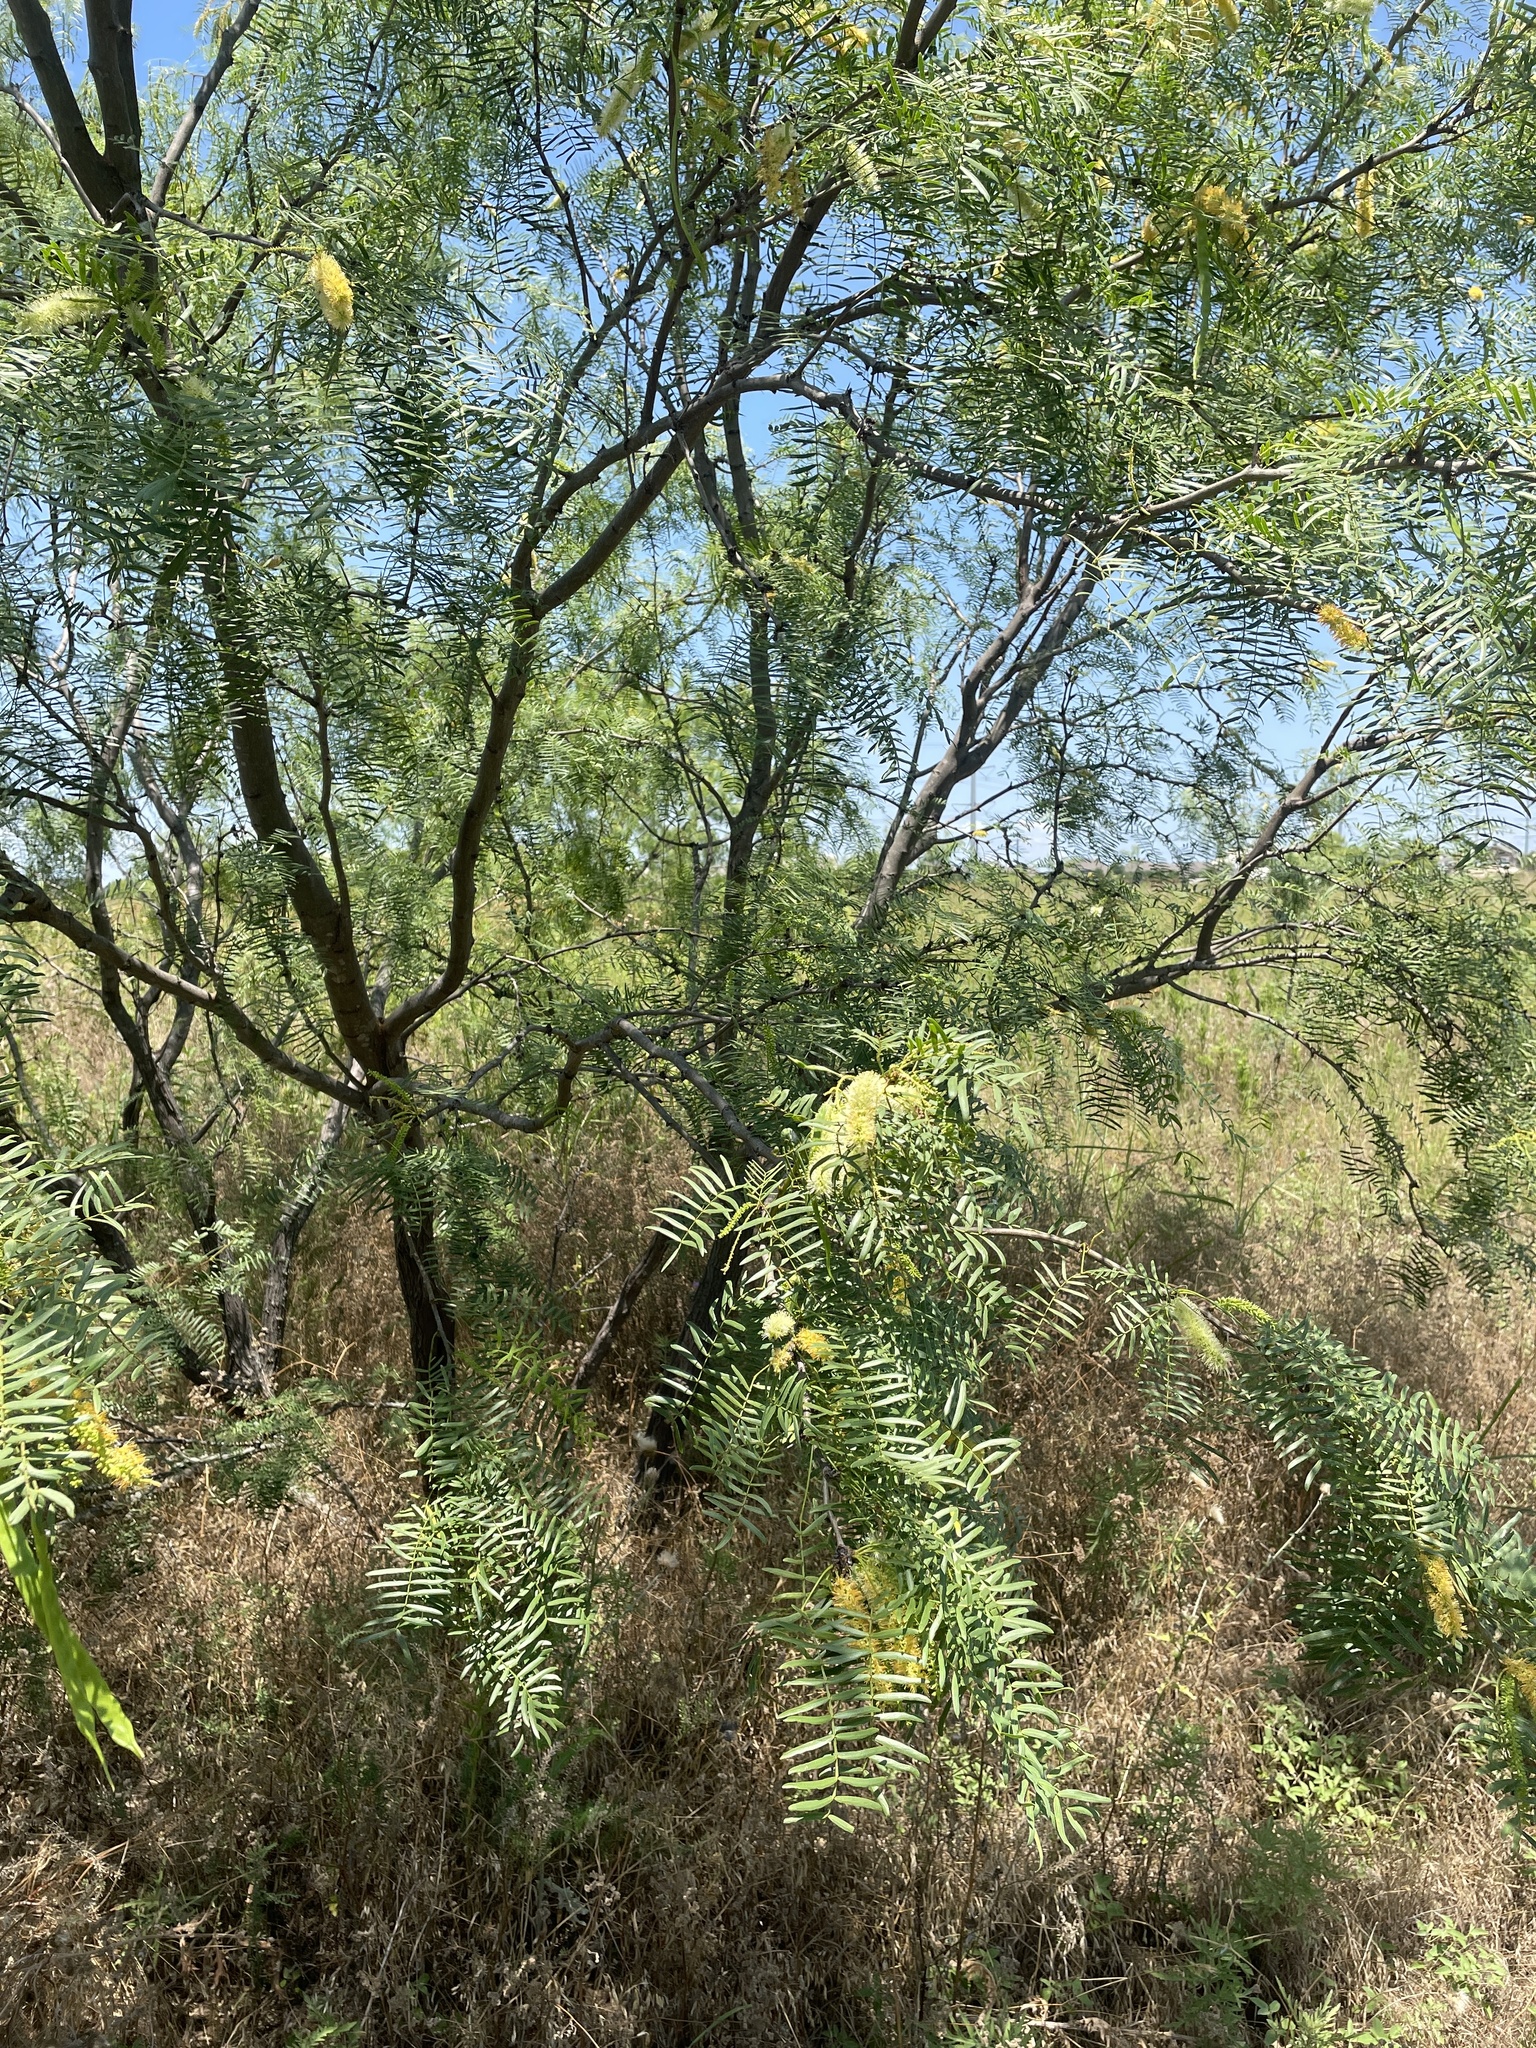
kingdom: Plantae
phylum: Tracheophyta
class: Magnoliopsida
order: Fabales
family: Fabaceae
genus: Prosopis
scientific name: Prosopis glandulosa
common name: Honey mesquite
